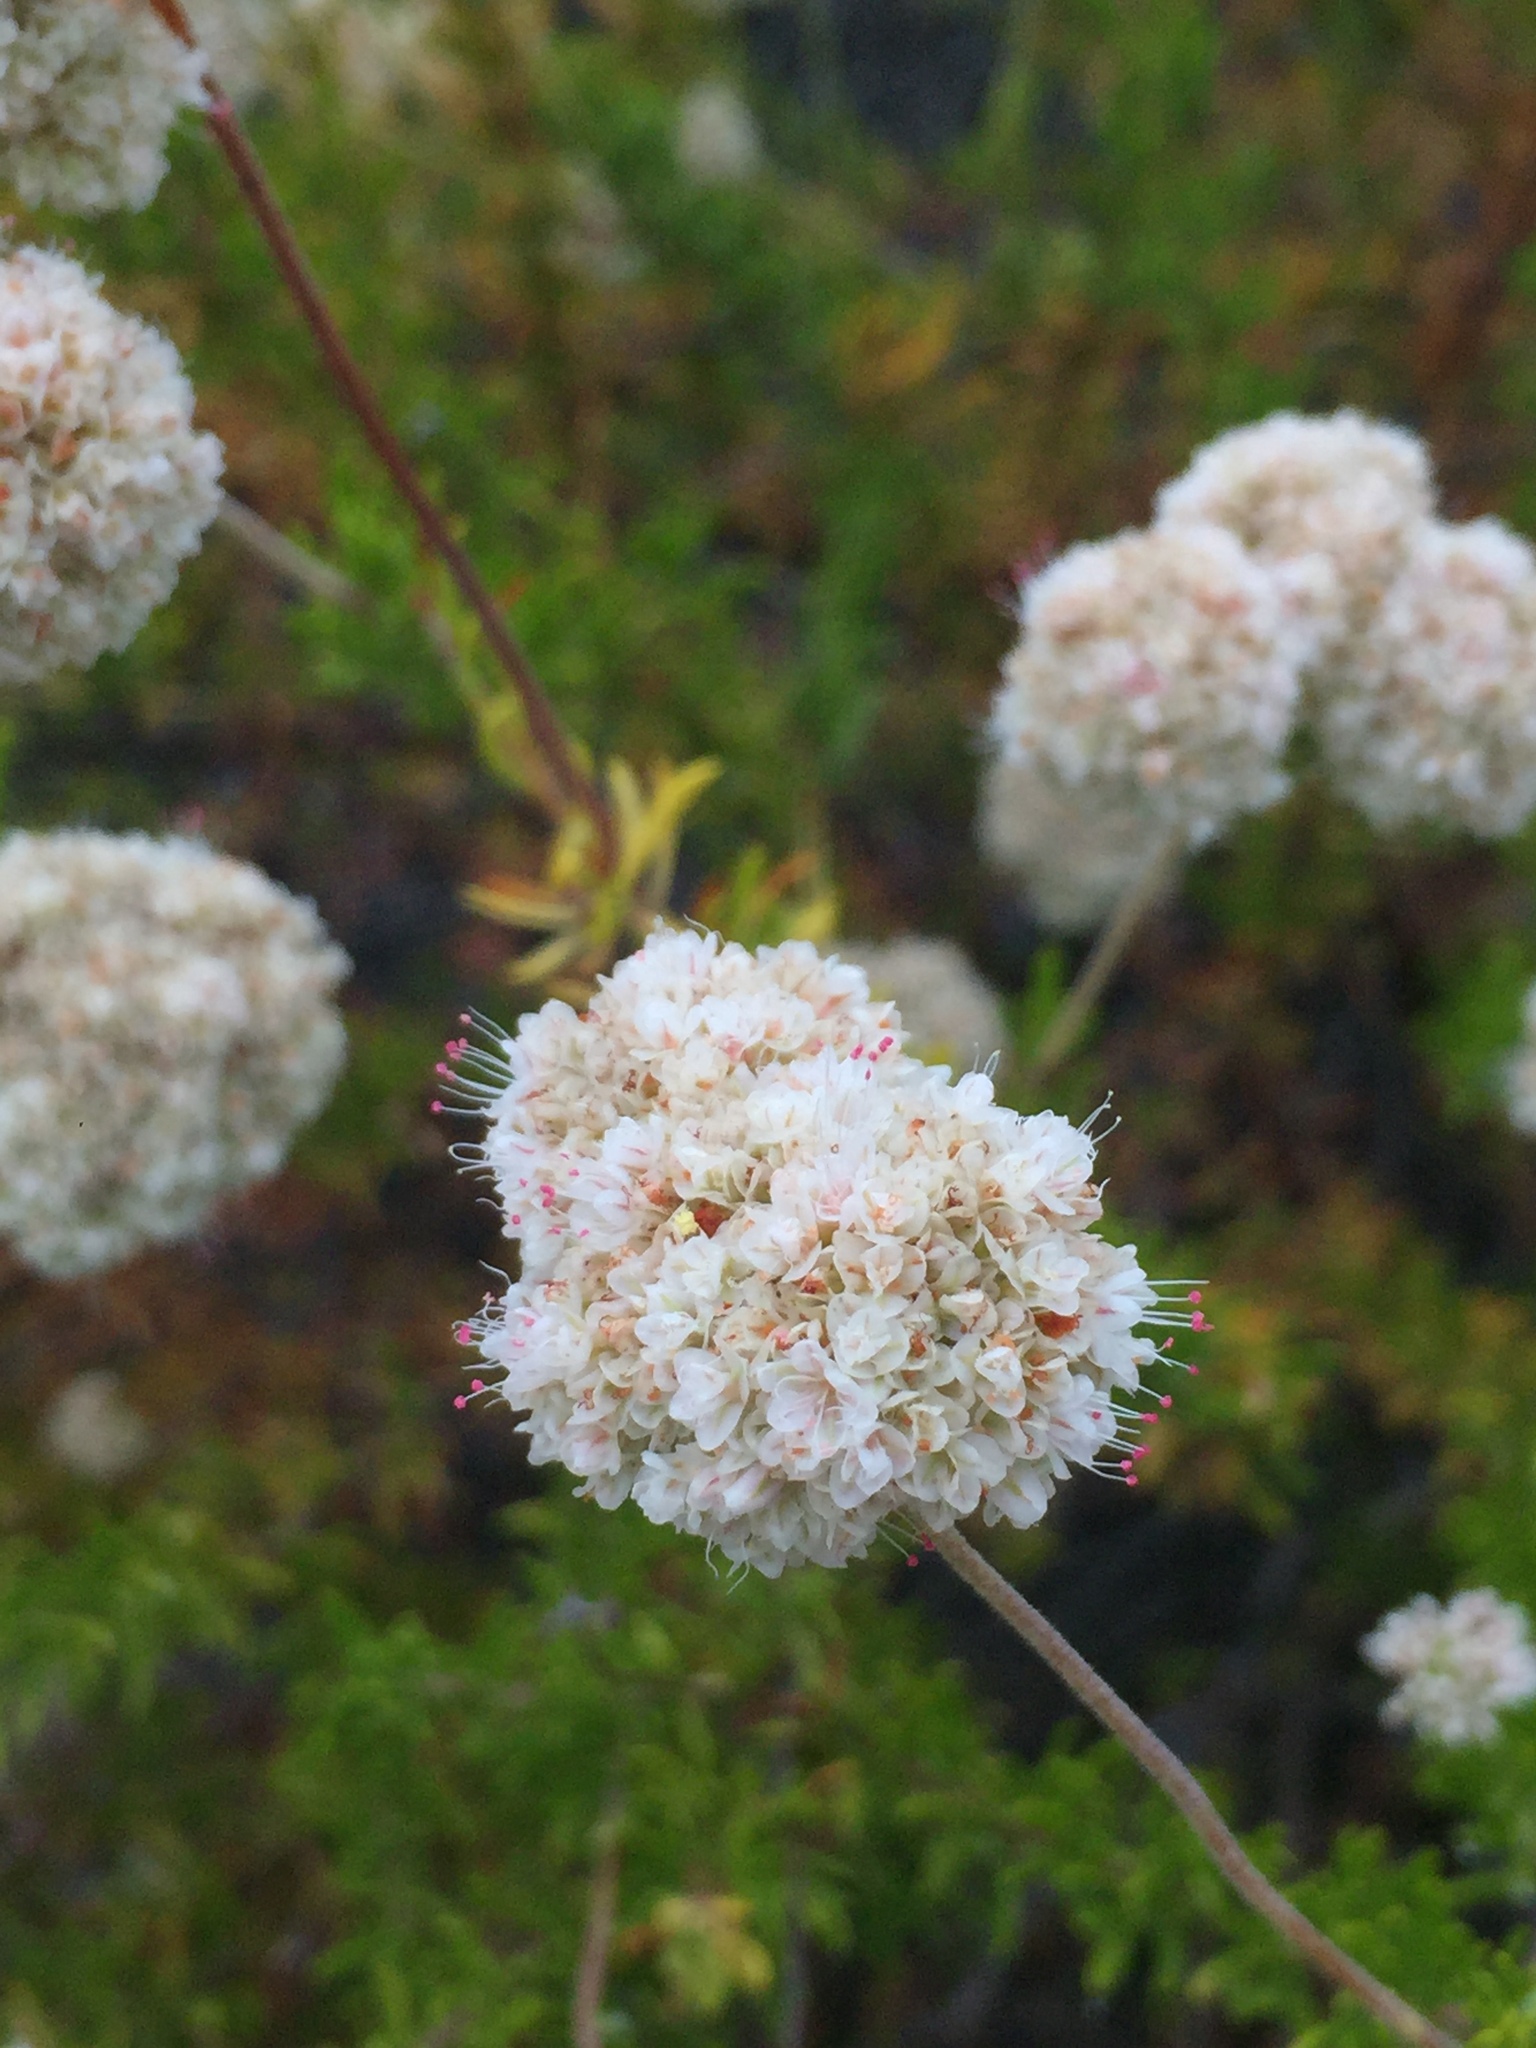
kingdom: Plantae
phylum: Tracheophyta
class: Magnoliopsida
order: Caryophyllales
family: Polygonaceae
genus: Eriogonum
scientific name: Eriogonum fasciculatum
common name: California wild buckwheat
